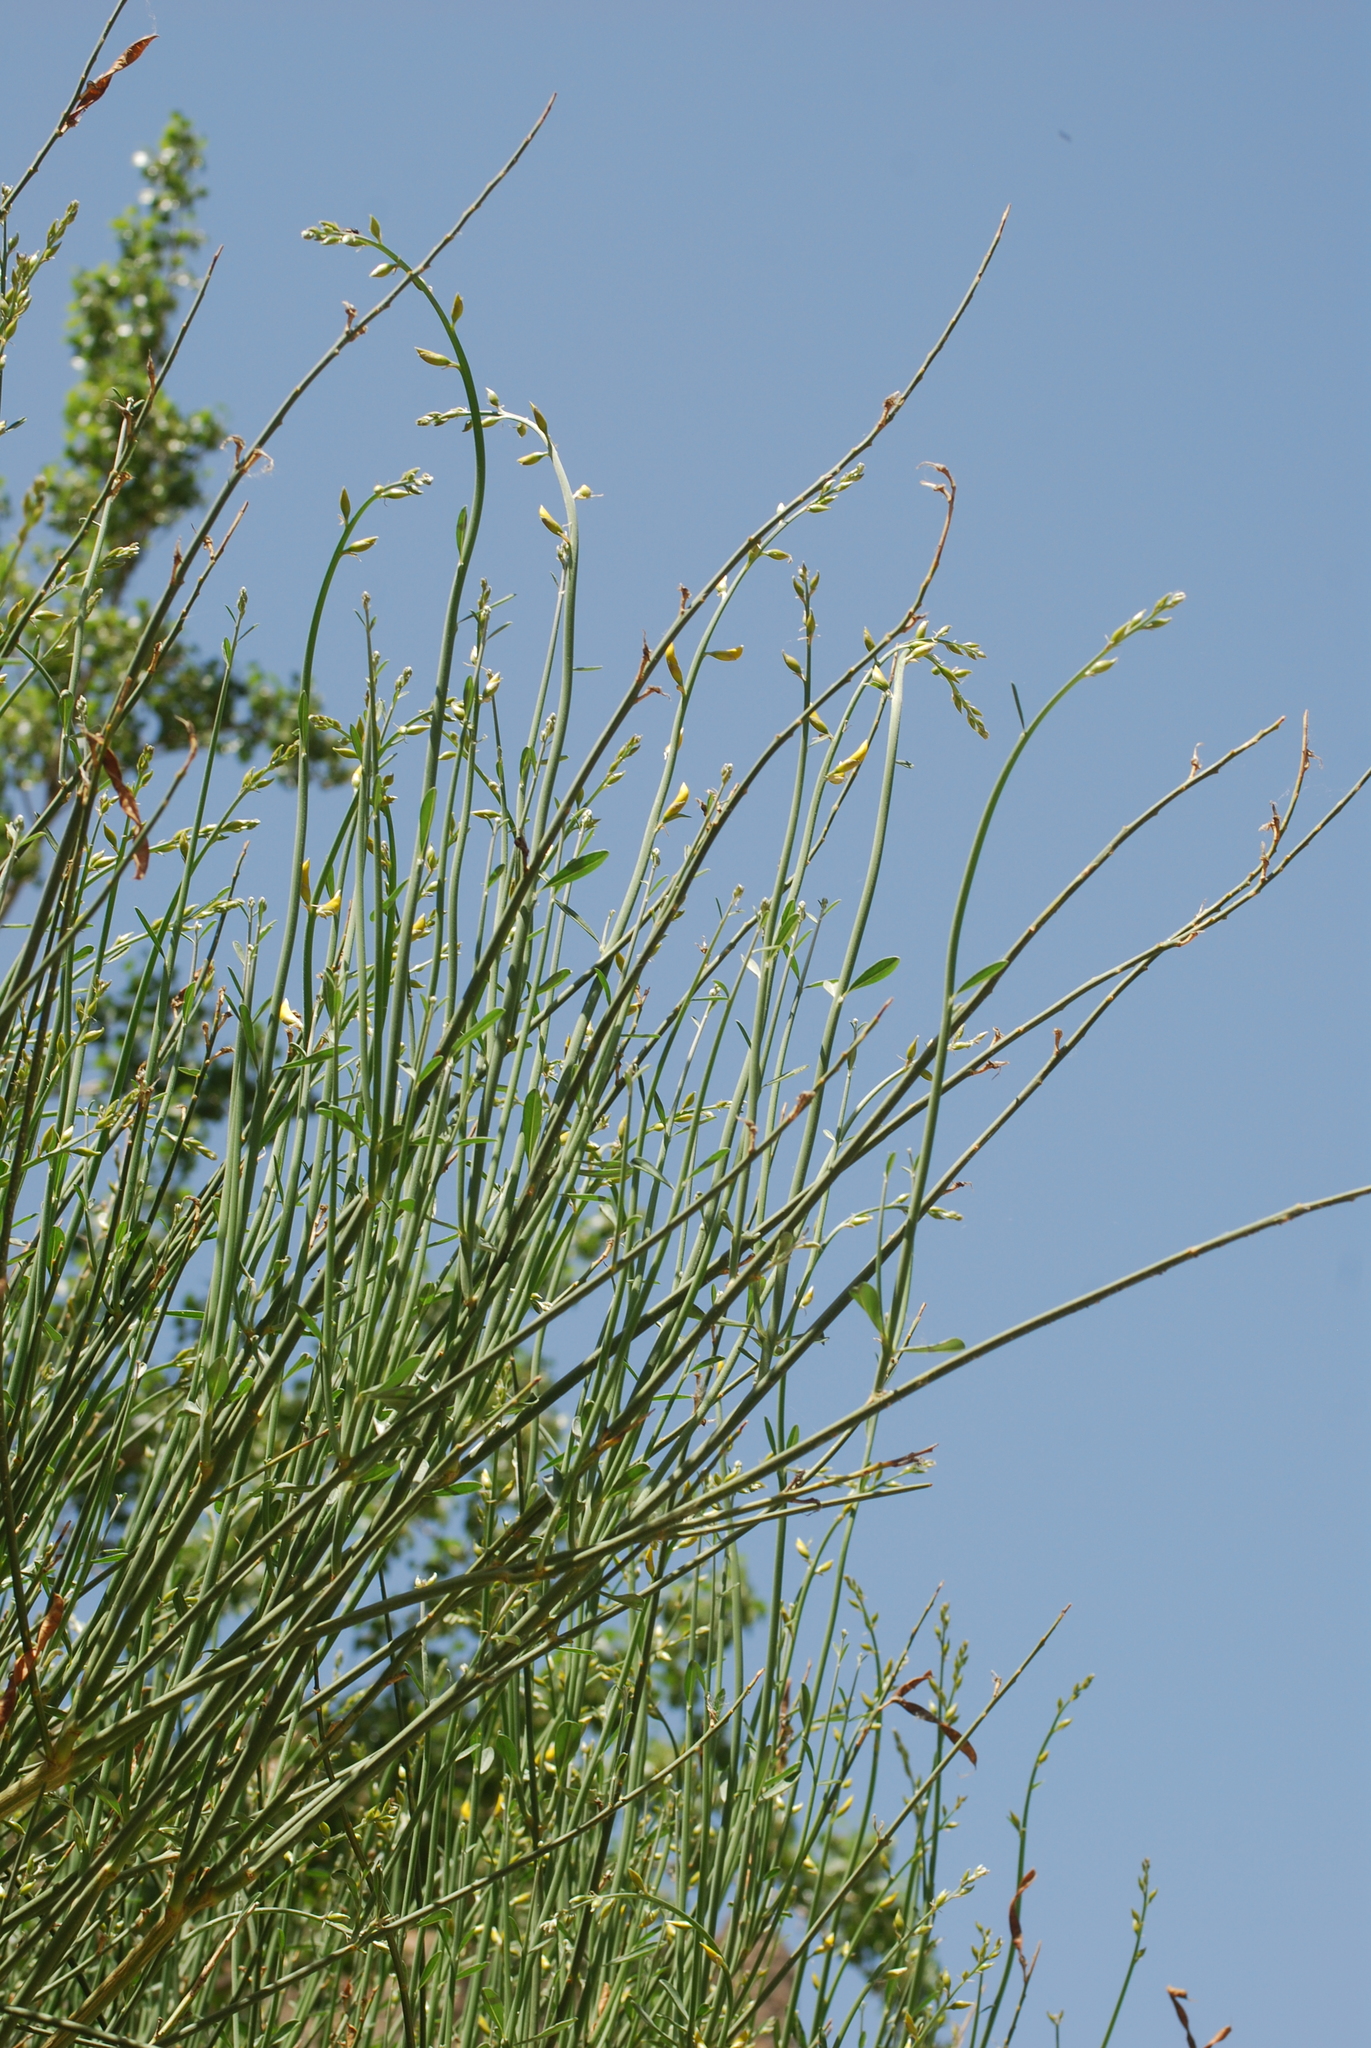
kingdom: Plantae
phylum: Tracheophyta
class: Magnoliopsida
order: Fabales
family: Fabaceae
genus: Spartium
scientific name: Spartium junceum
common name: Spanish broom
